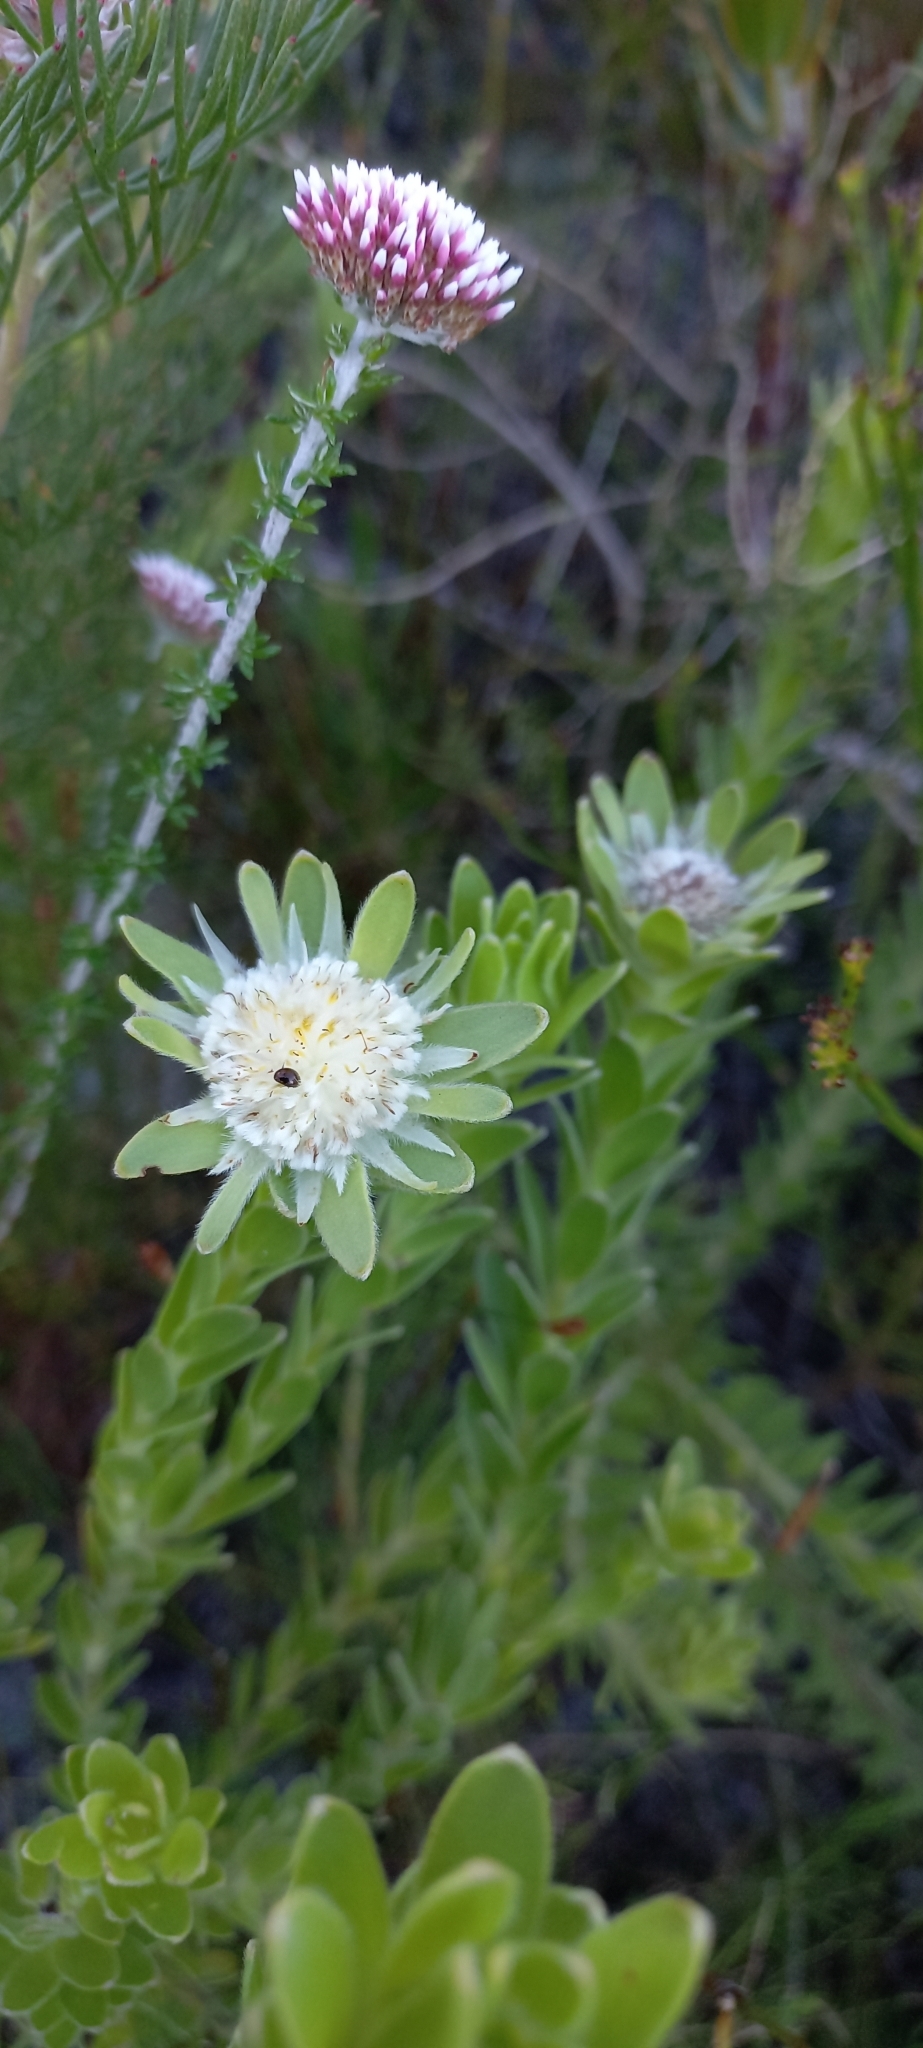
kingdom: Plantae
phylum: Tracheophyta
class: Magnoliopsida
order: Proteales
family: Proteaceae
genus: Diastella
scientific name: Diastella thymelaeoides
